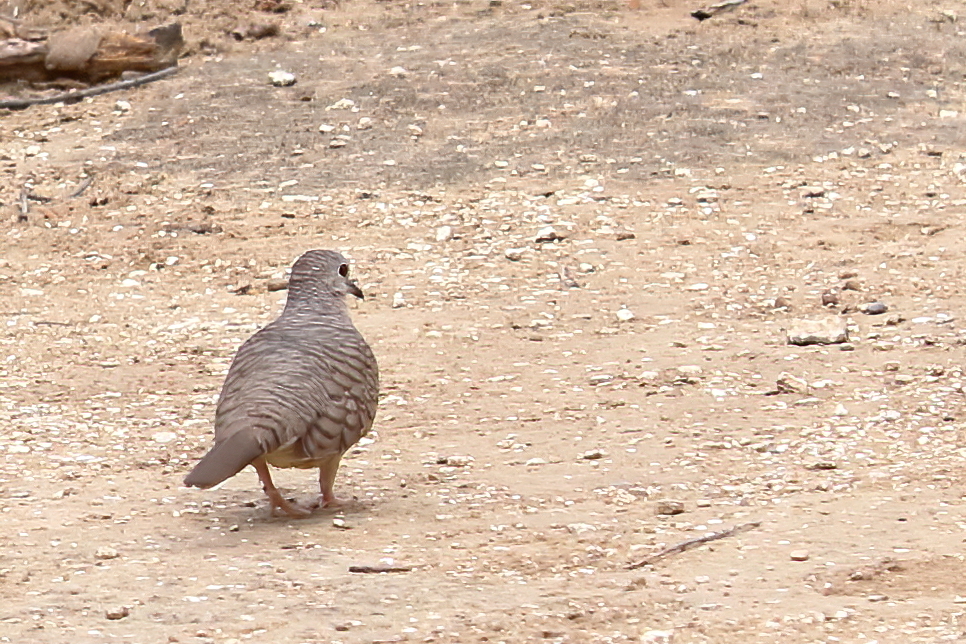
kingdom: Animalia
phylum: Chordata
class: Aves
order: Columbiformes
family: Columbidae
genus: Columbina
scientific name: Columbina inca
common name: Inca dove
